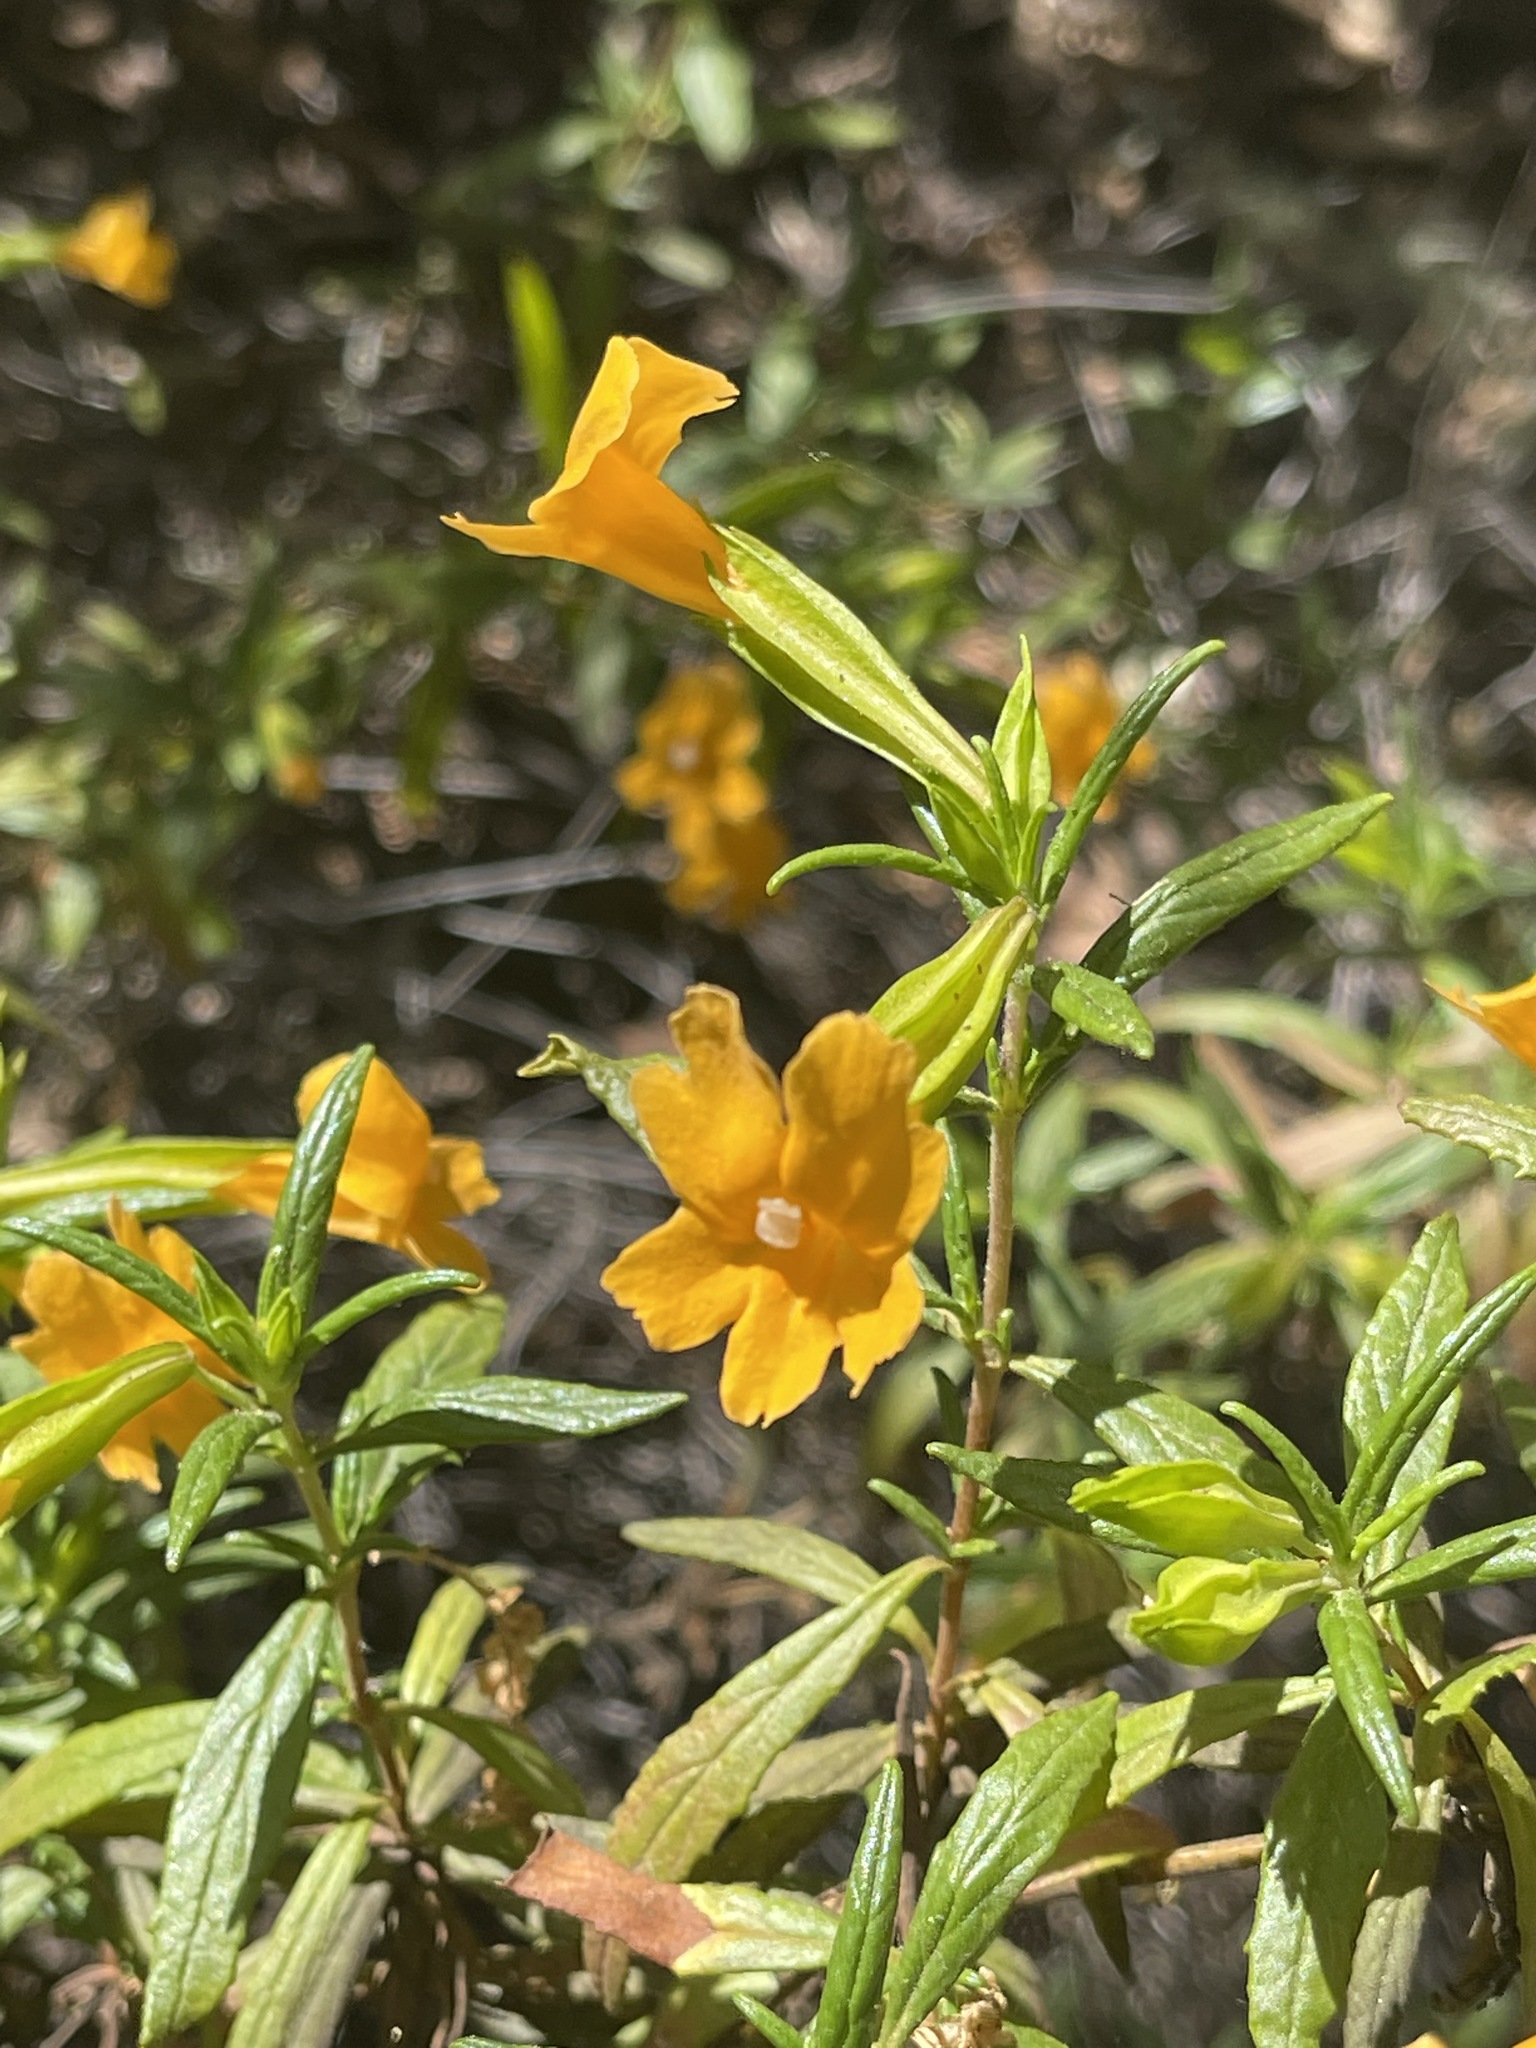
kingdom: Plantae
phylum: Tracheophyta
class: Magnoliopsida
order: Lamiales
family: Phrymaceae
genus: Diplacus
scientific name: Diplacus aurantiacus
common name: Bush monkey-flower
